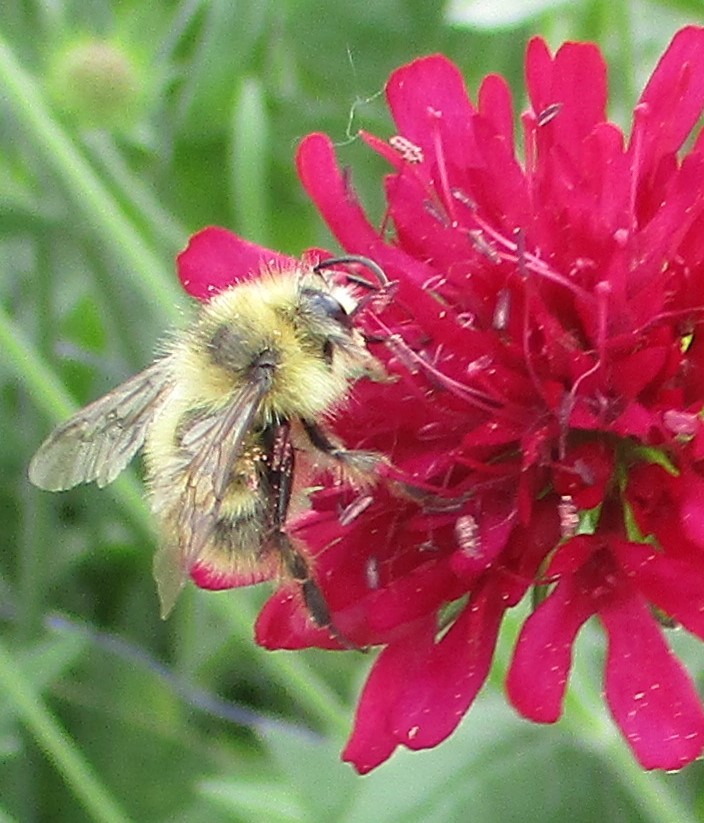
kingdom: Animalia
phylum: Arthropoda
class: Insecta
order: Hymenoptera
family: Apidae
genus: Bombus
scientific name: Bombus mixtus
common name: Fuzzy-horned bumble bee
